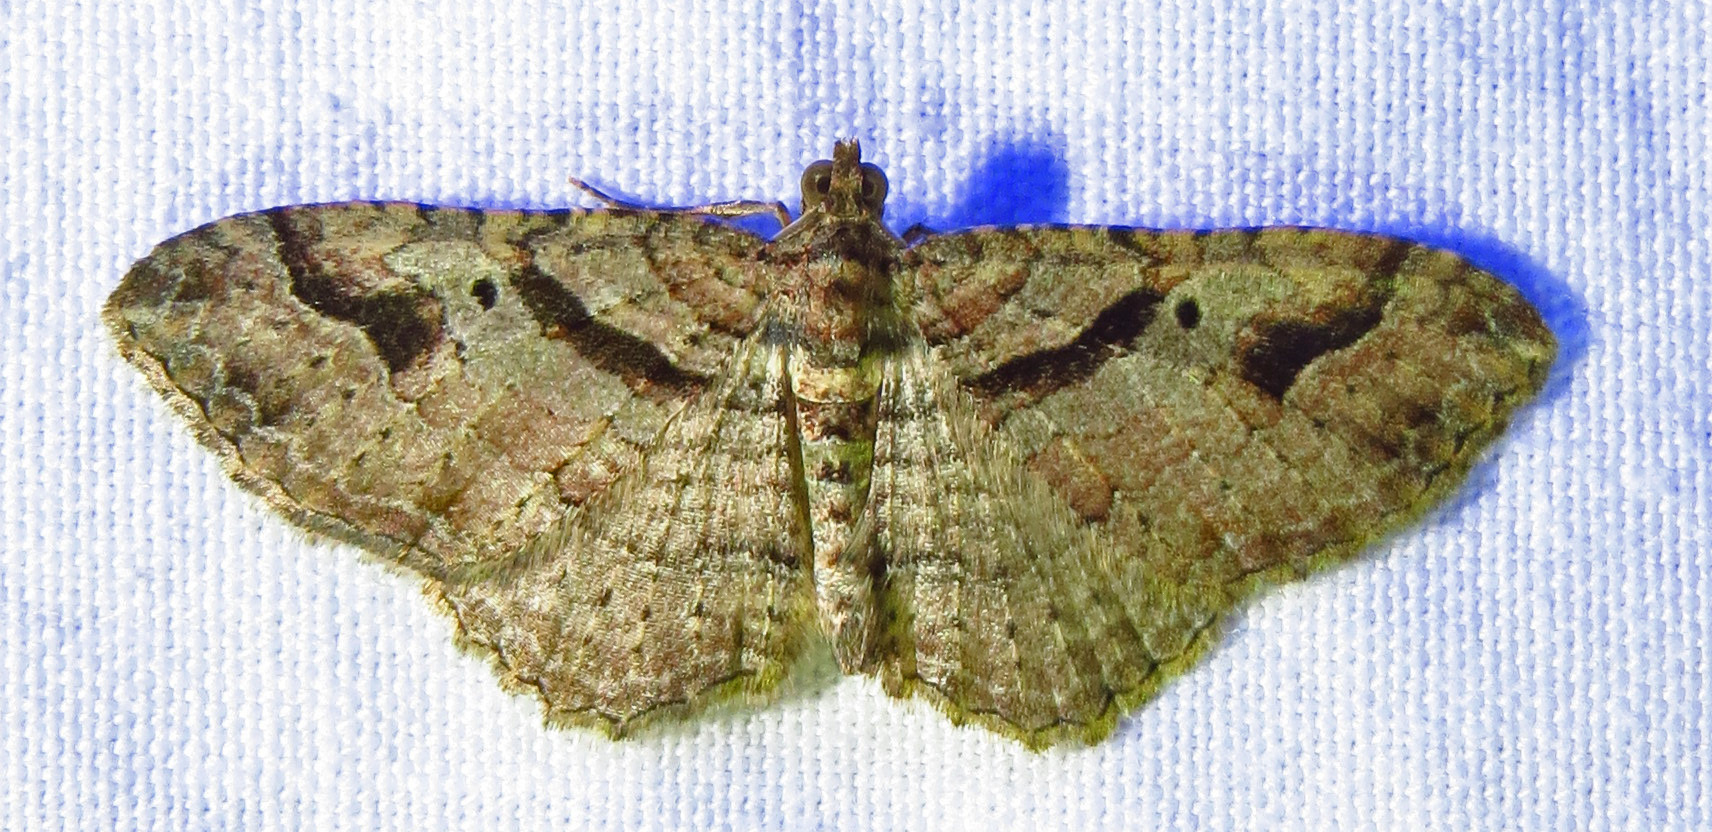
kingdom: Animalia
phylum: Arthropoda
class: Insecta
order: Lepidoptera
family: Geometridae
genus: Costaconvexa
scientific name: Costaconvexa centrostrigaria
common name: Bent-line carpet
